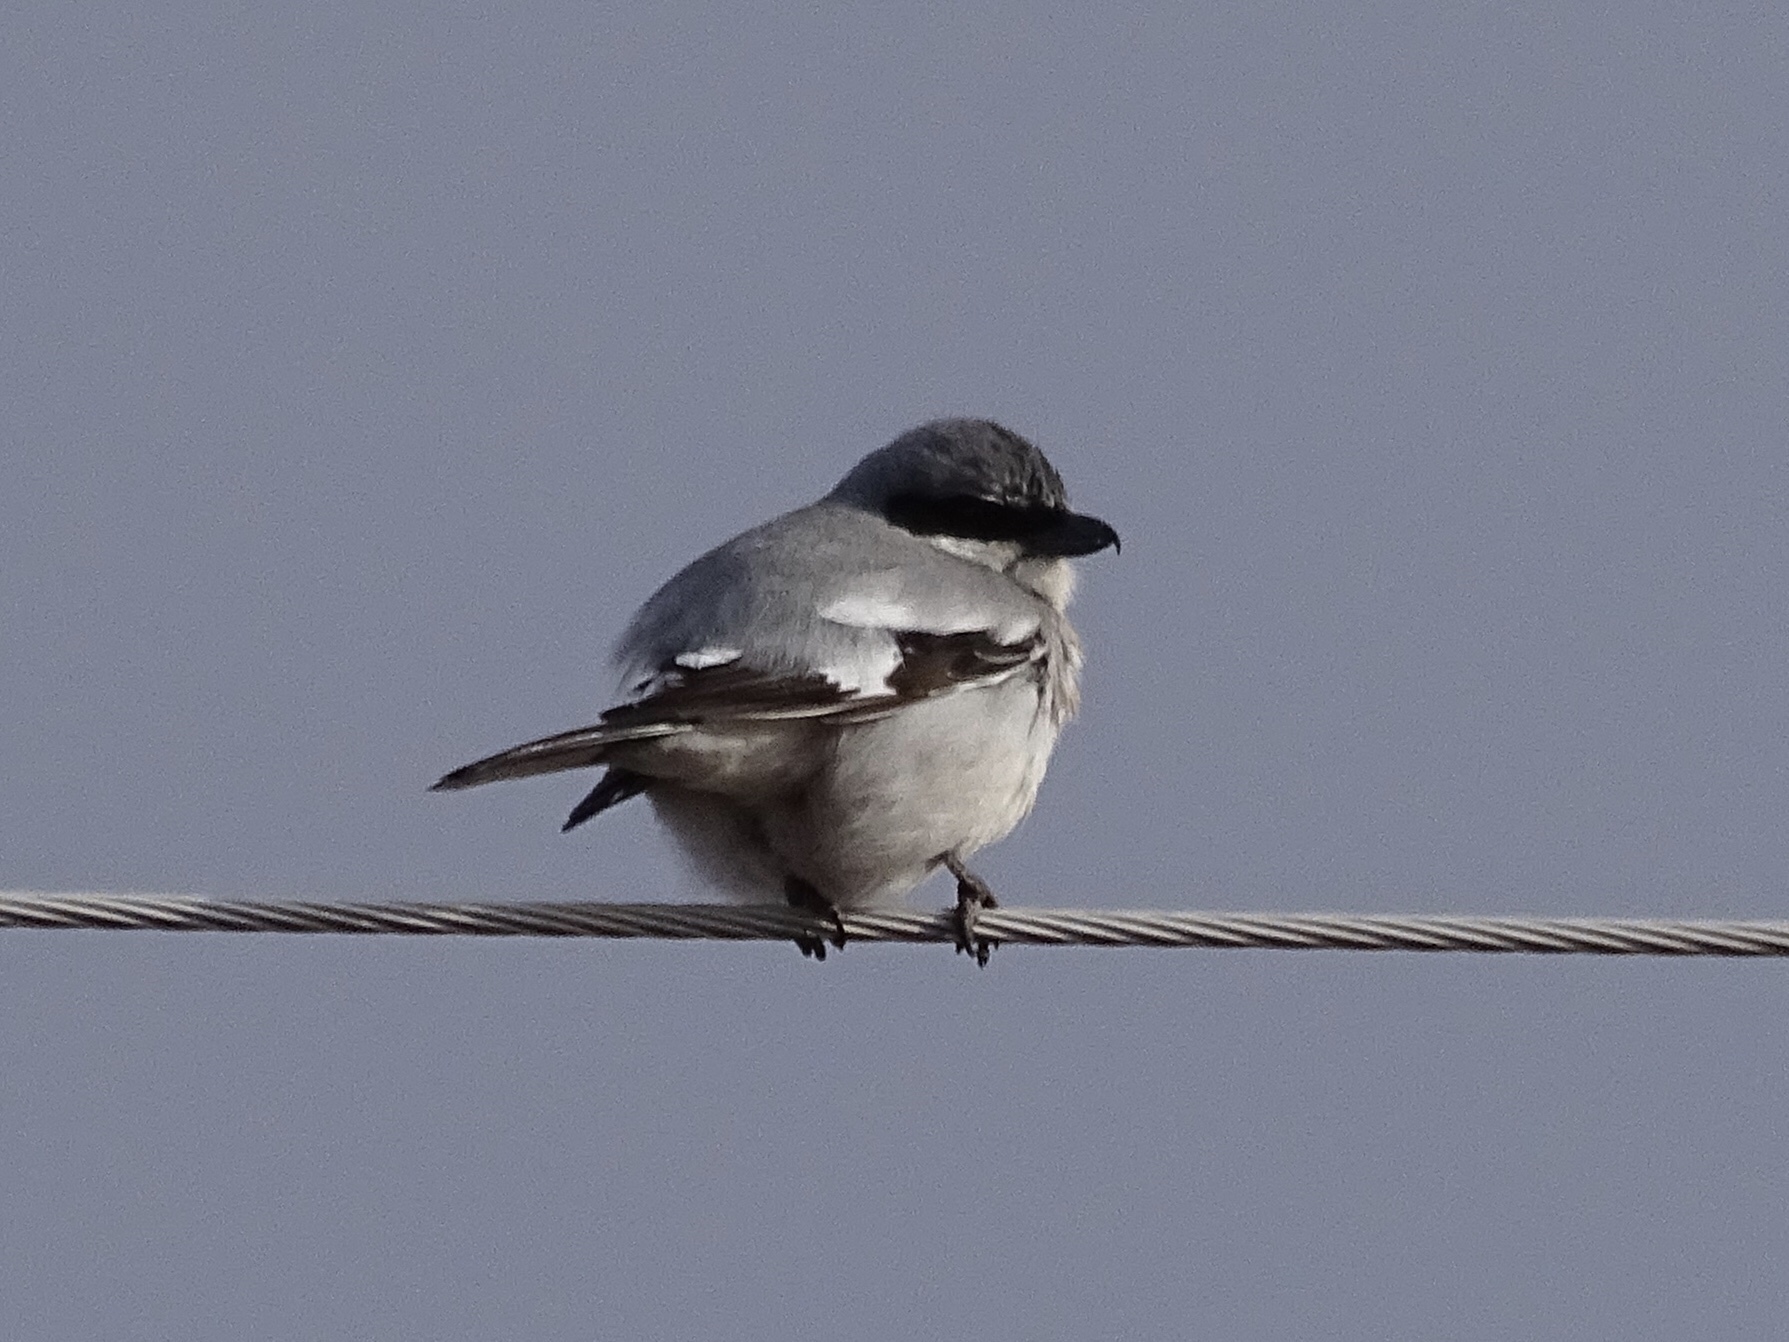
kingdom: Animalia
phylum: Chordata
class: Aves
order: Passeriformes
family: Laniidae
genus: Lanius
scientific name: Lanius ludovicianus
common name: Loggerhead shrike
